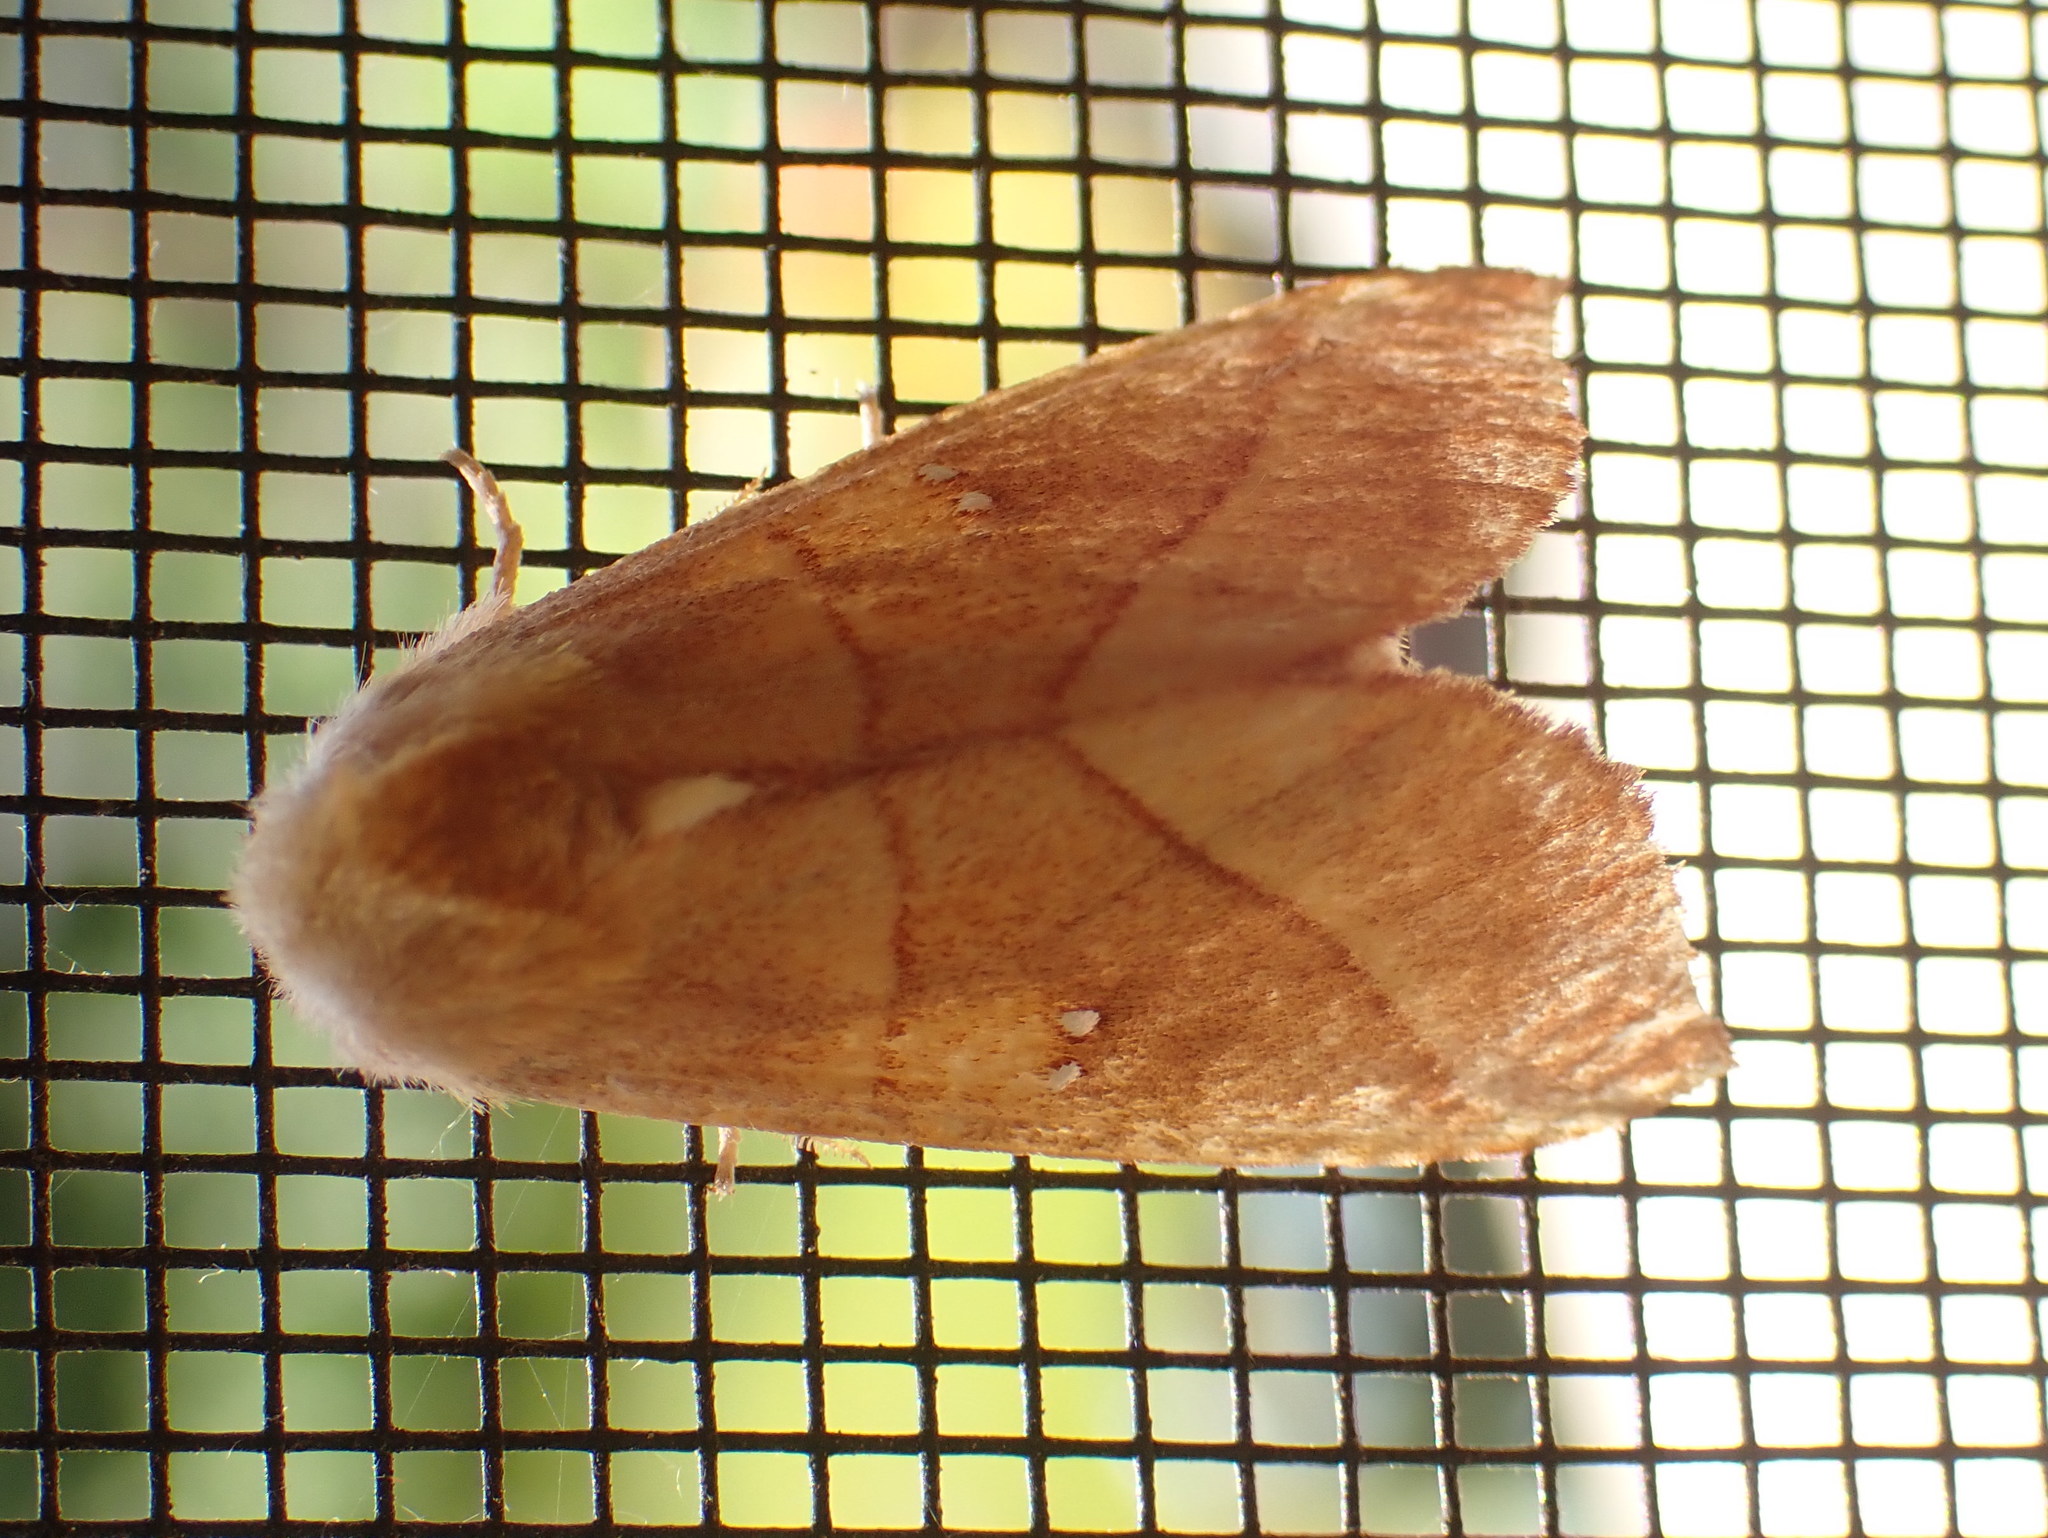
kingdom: Animalia
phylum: Arthropoda
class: Insecta
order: Lepidoptera
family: Notodontidae
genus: Nadata
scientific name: Nadata gibbosa
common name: White-dotted prominent
